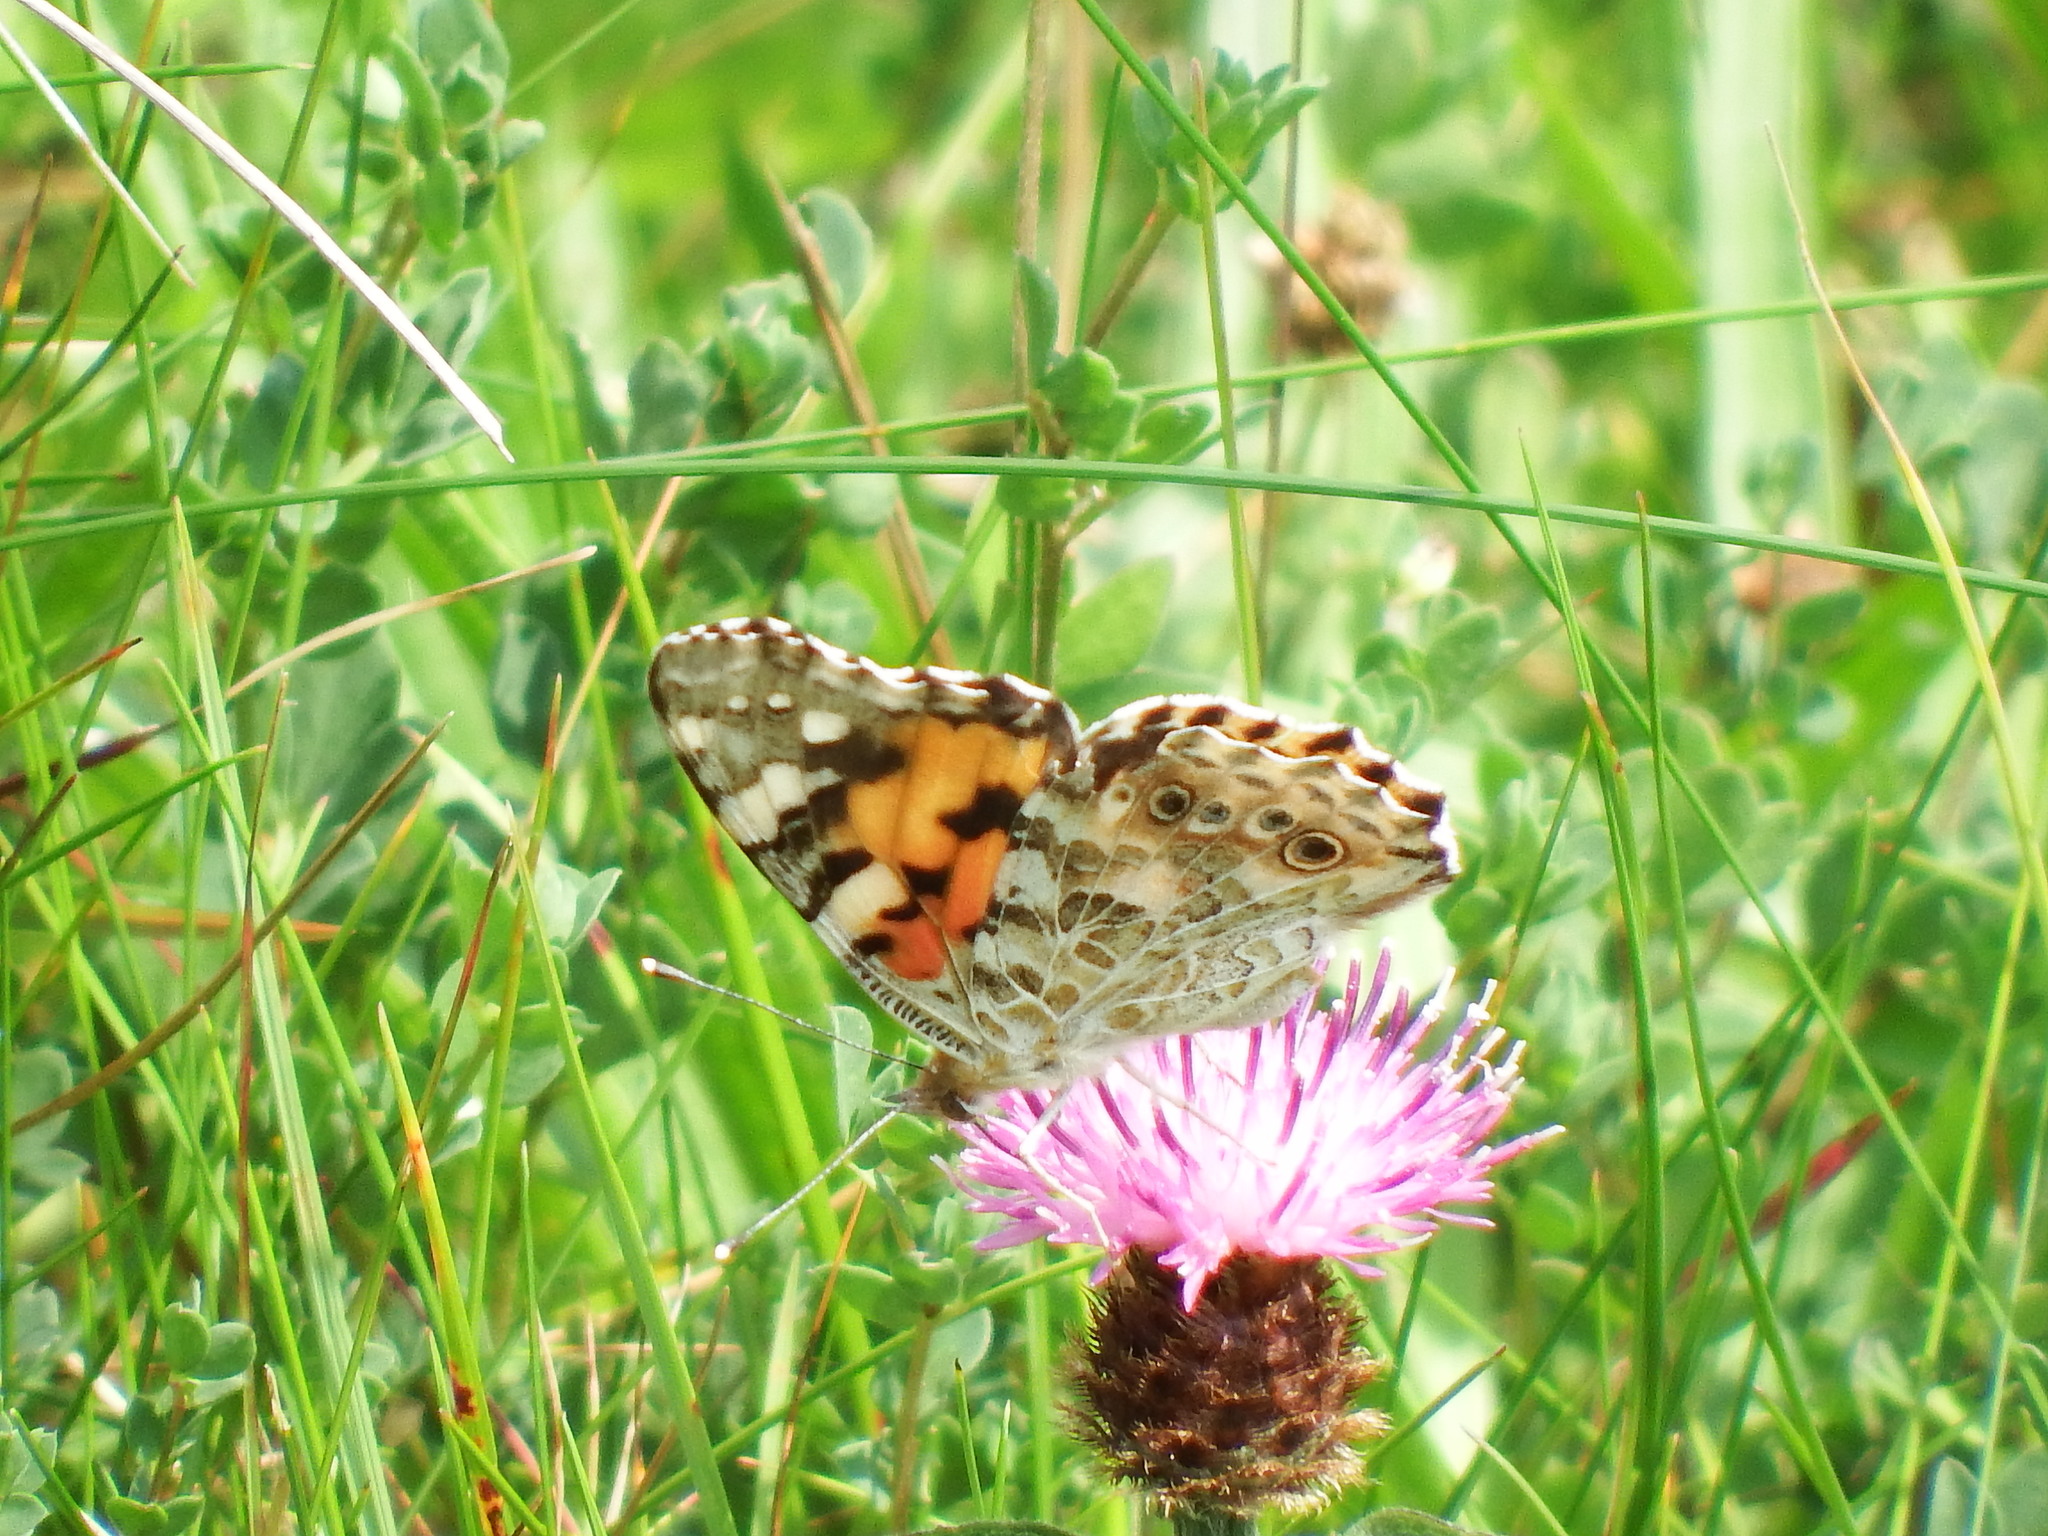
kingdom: Animalia
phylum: Arthropoda
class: Insecta
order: Lepidoptera
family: Nymphalidae
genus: Vanessa
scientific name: Vanessa cardui
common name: Painted lady
